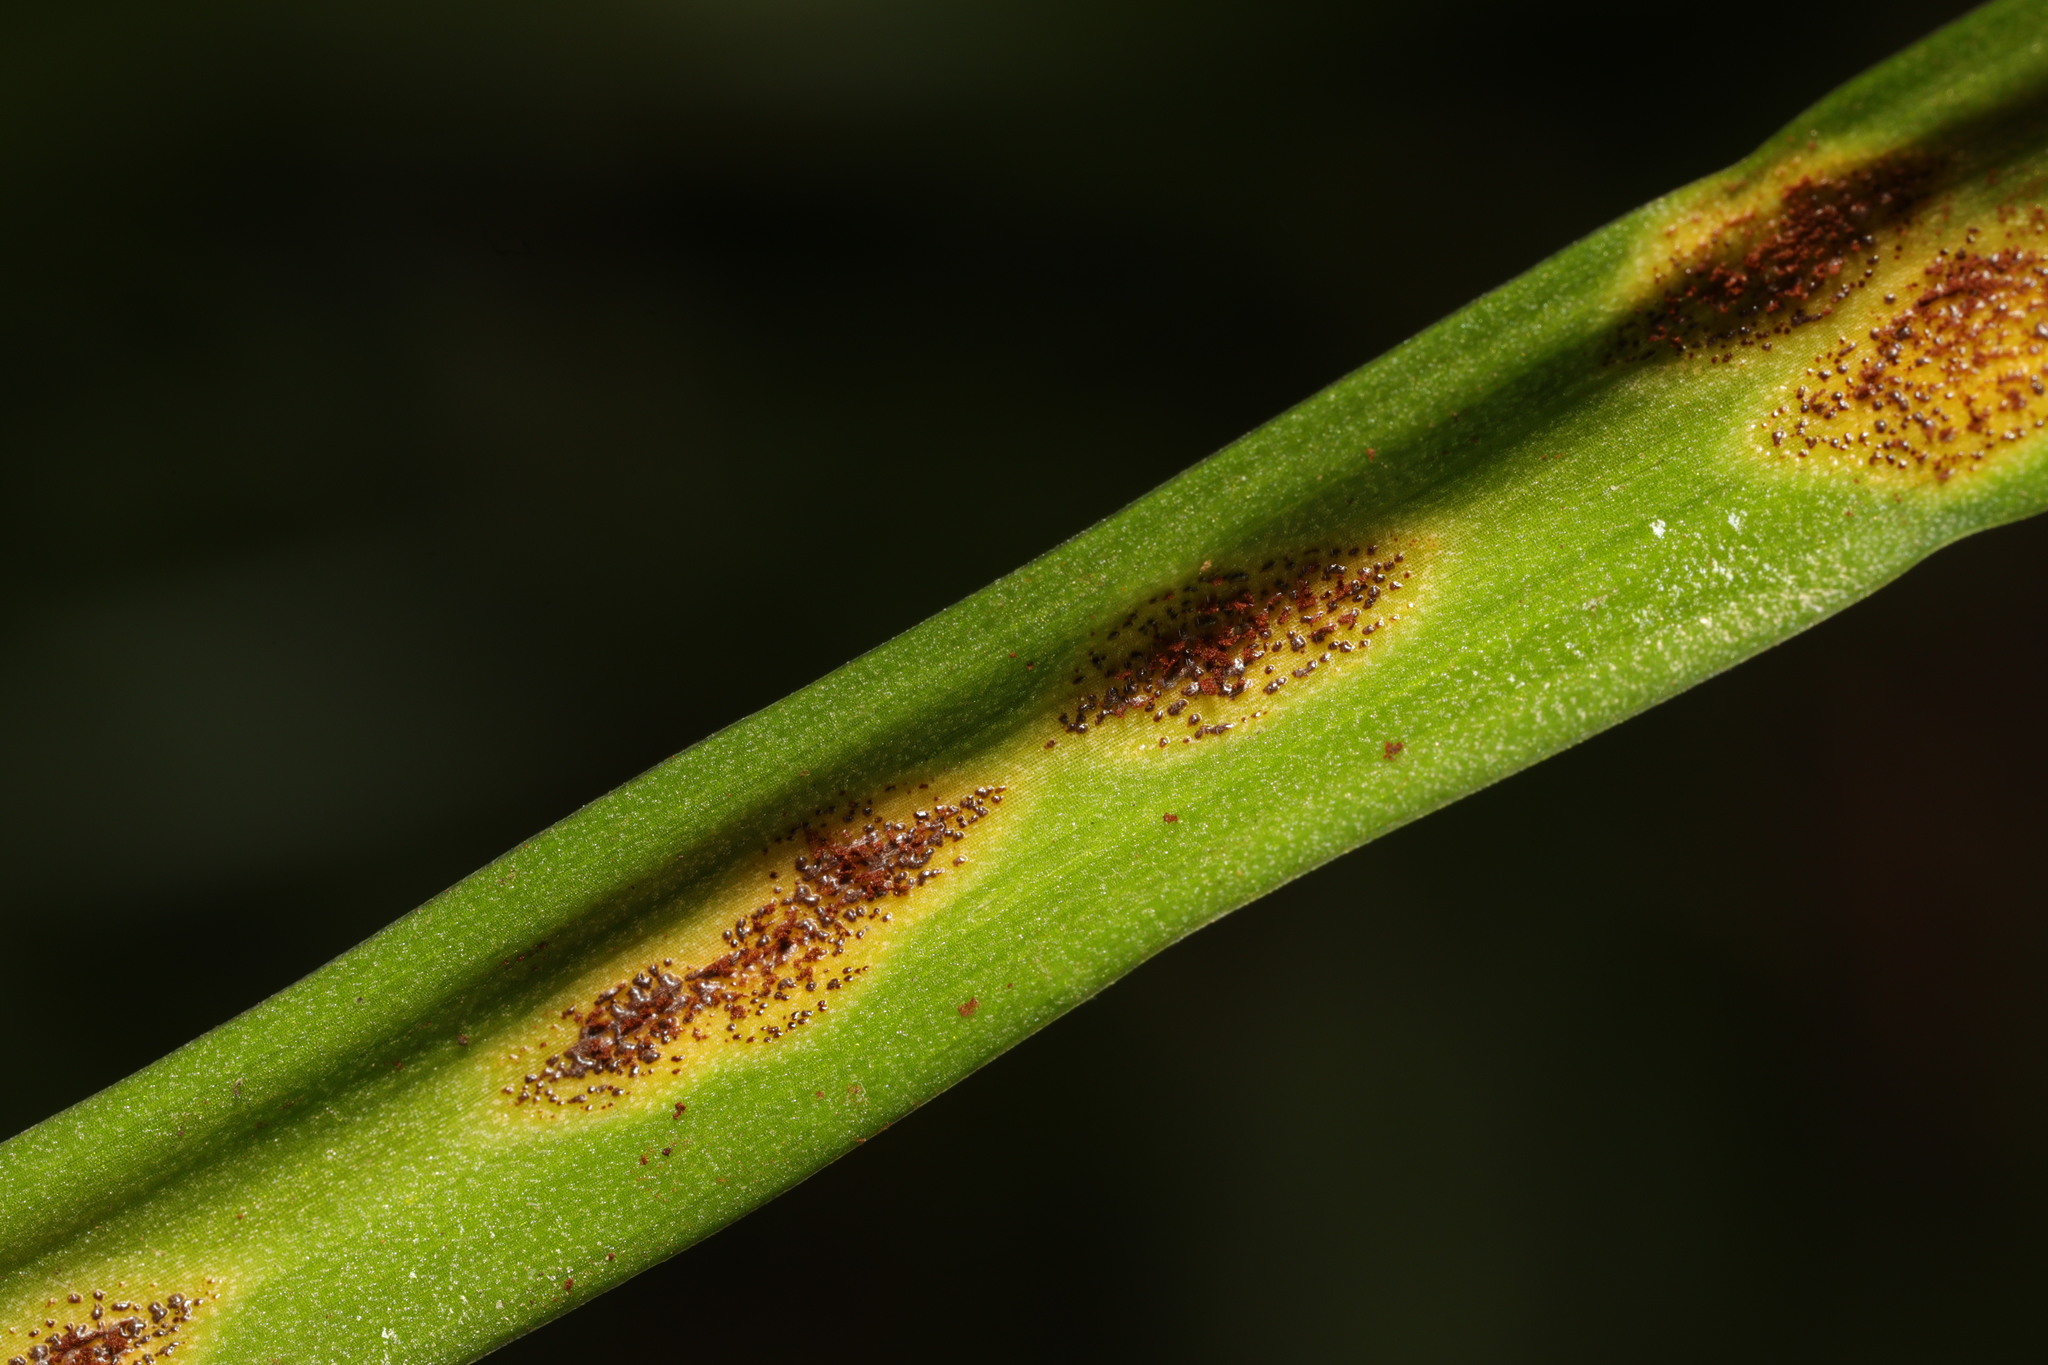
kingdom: Fungi
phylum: Basidiomycota
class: Pucciniomycetes
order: Pucciniales
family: Pucciniaceae
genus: Uromyces
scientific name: Uromyces hyacinthi
